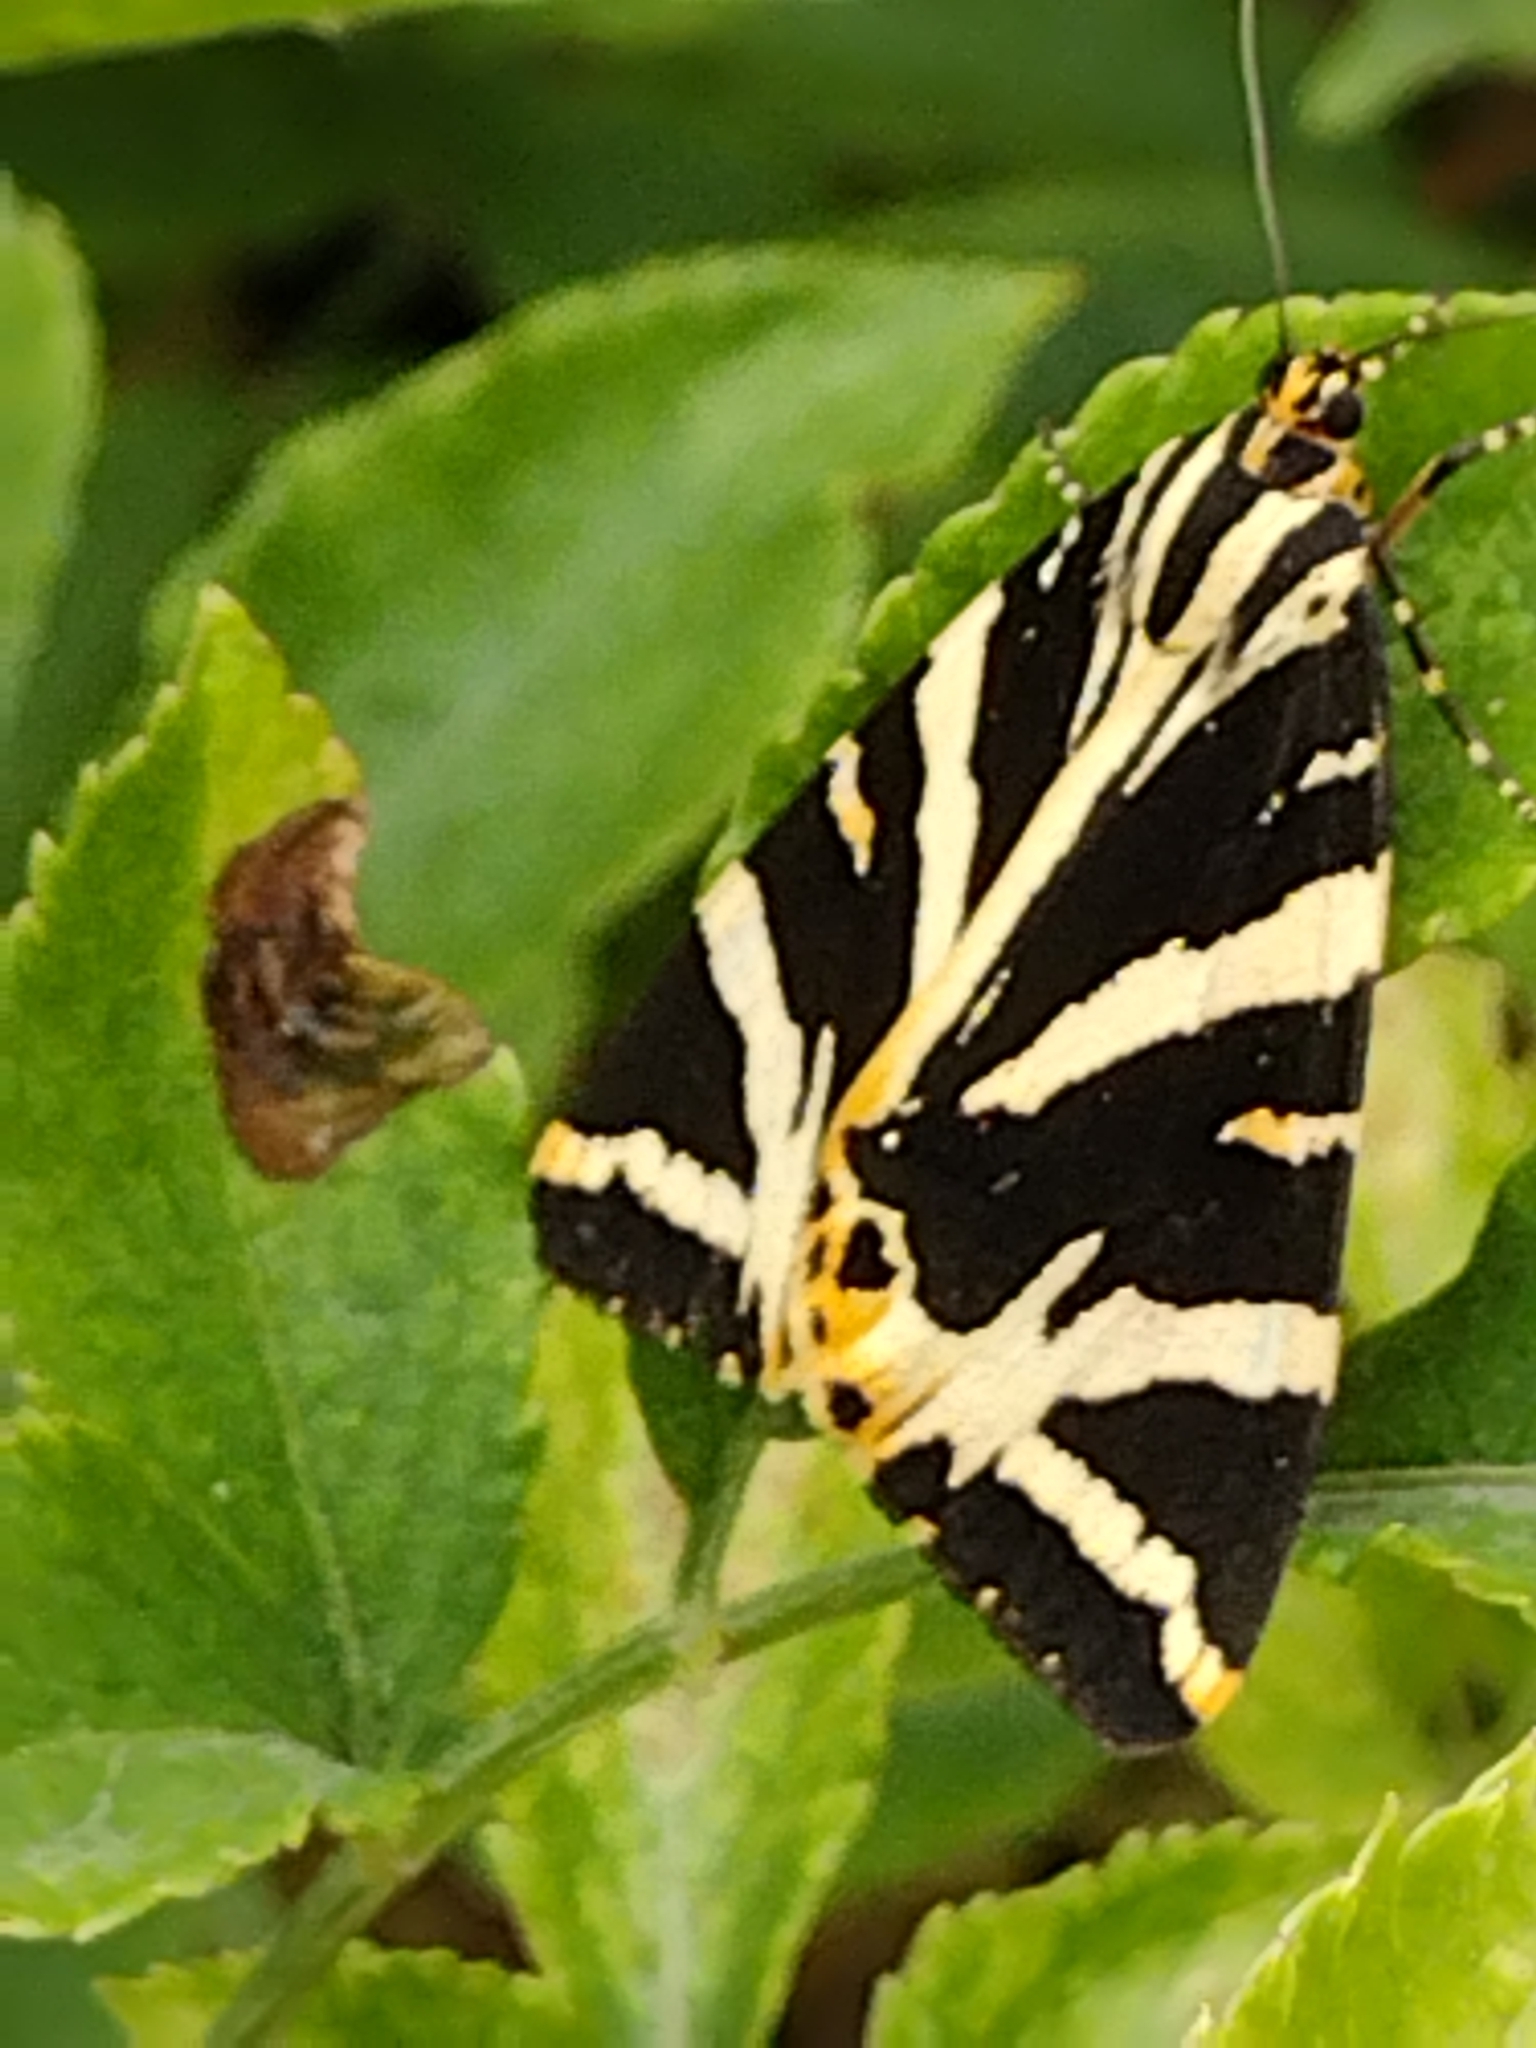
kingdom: Animalia
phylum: Arthropoda
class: Insecta
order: Lepidoptera
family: Erebidae
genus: Euplagia
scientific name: Euplagia quadripunctaria
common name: Jersey tiger
